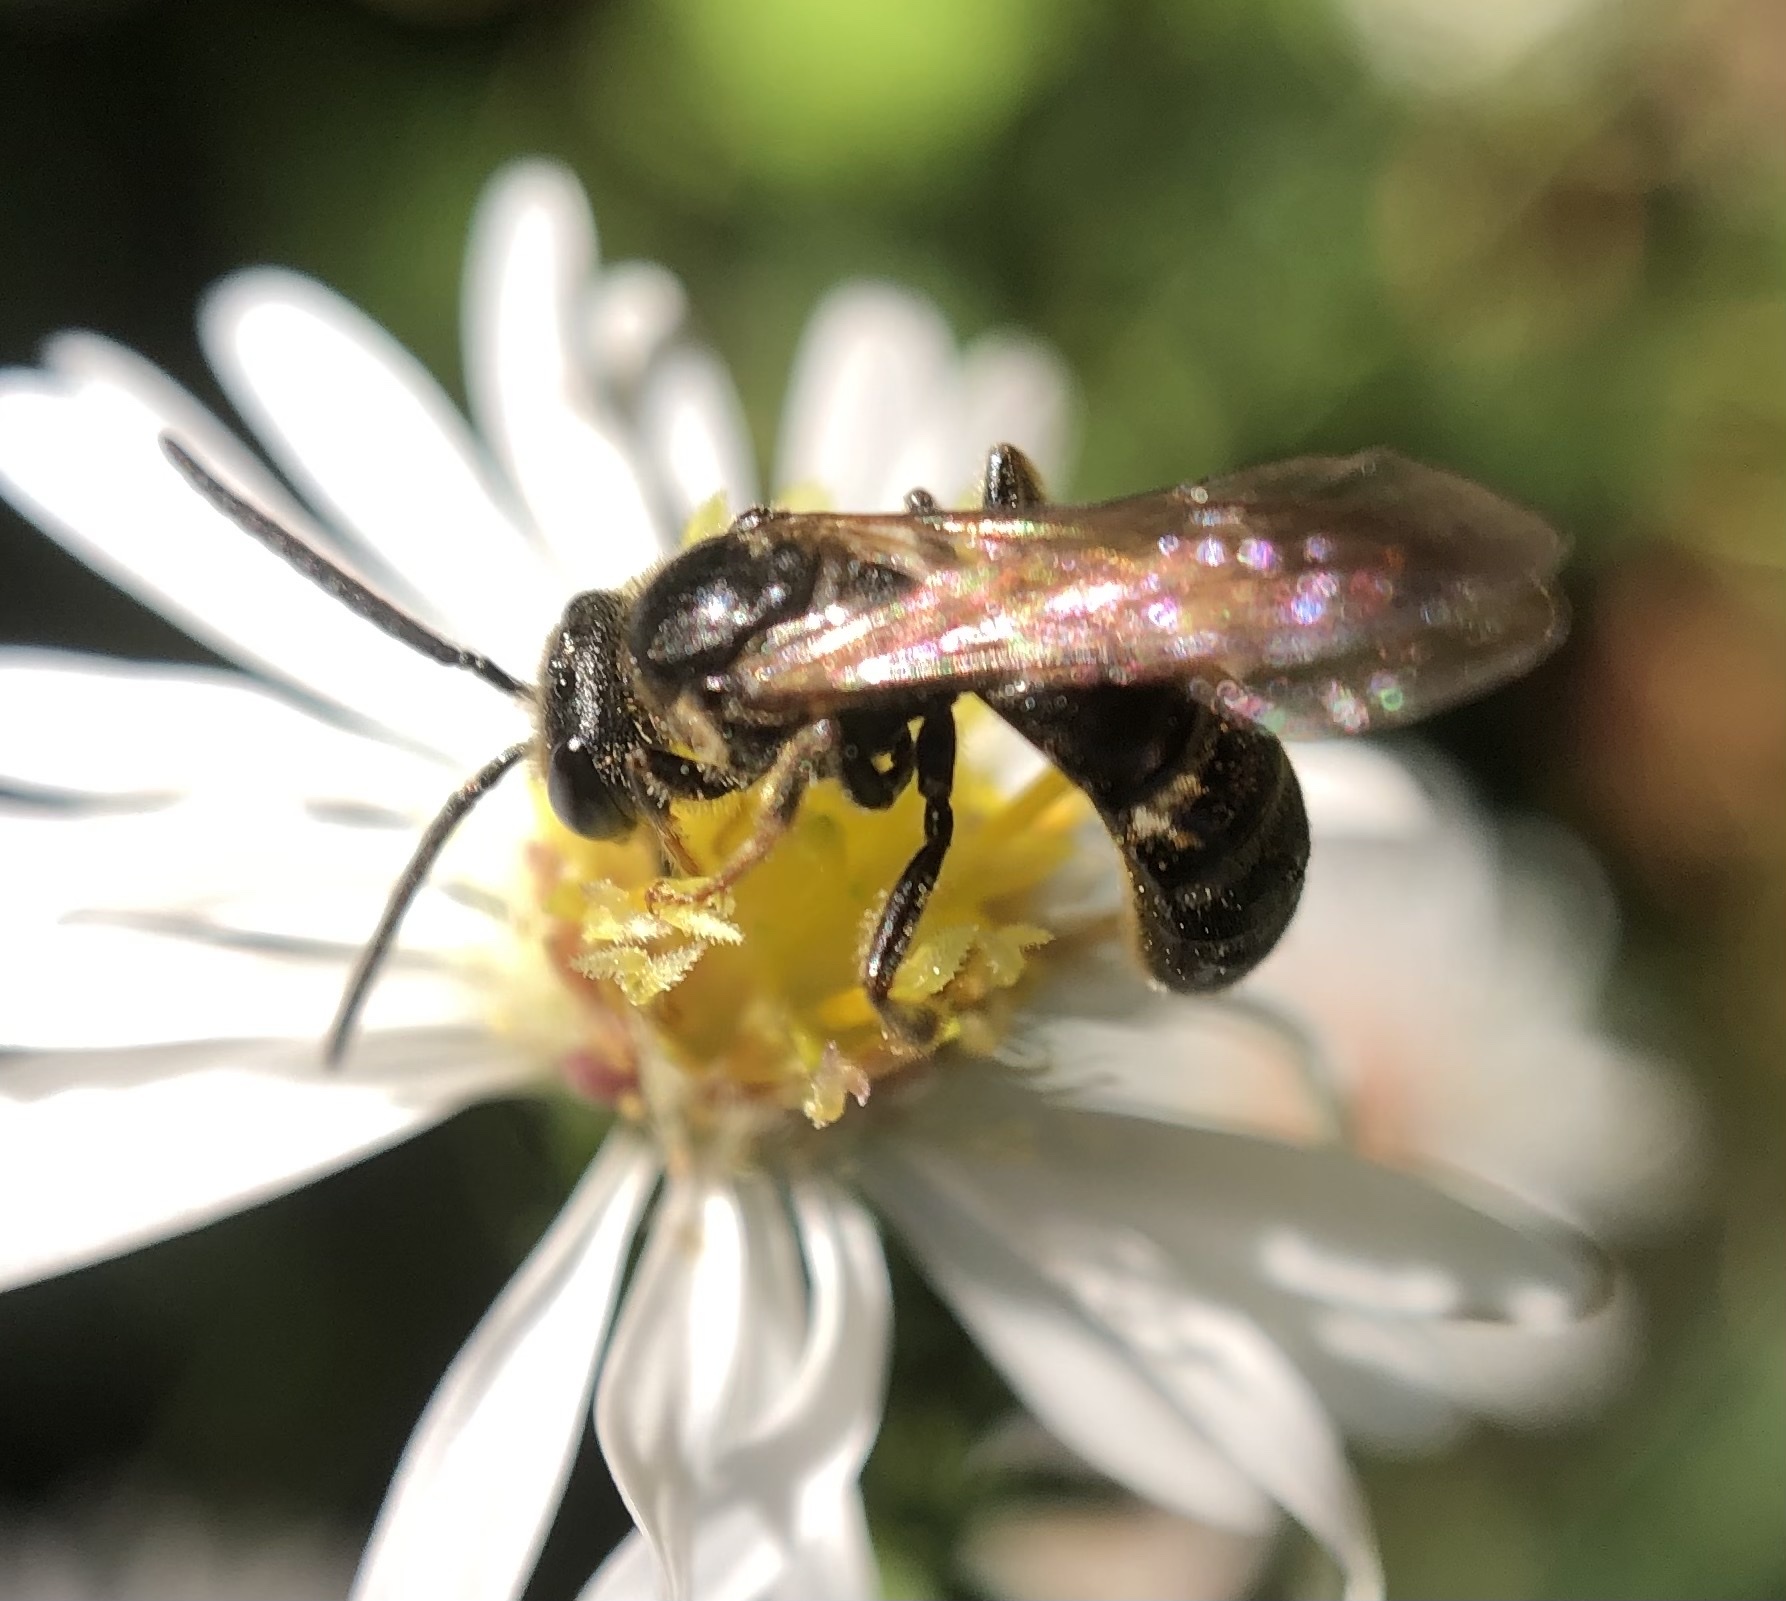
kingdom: Animalia
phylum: Arthropoda
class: Insecta
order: Hymenoptera
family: Halictidae
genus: Lasioglossum
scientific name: Lasioglossum fuscipenne
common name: Brown-winged sweat bee
